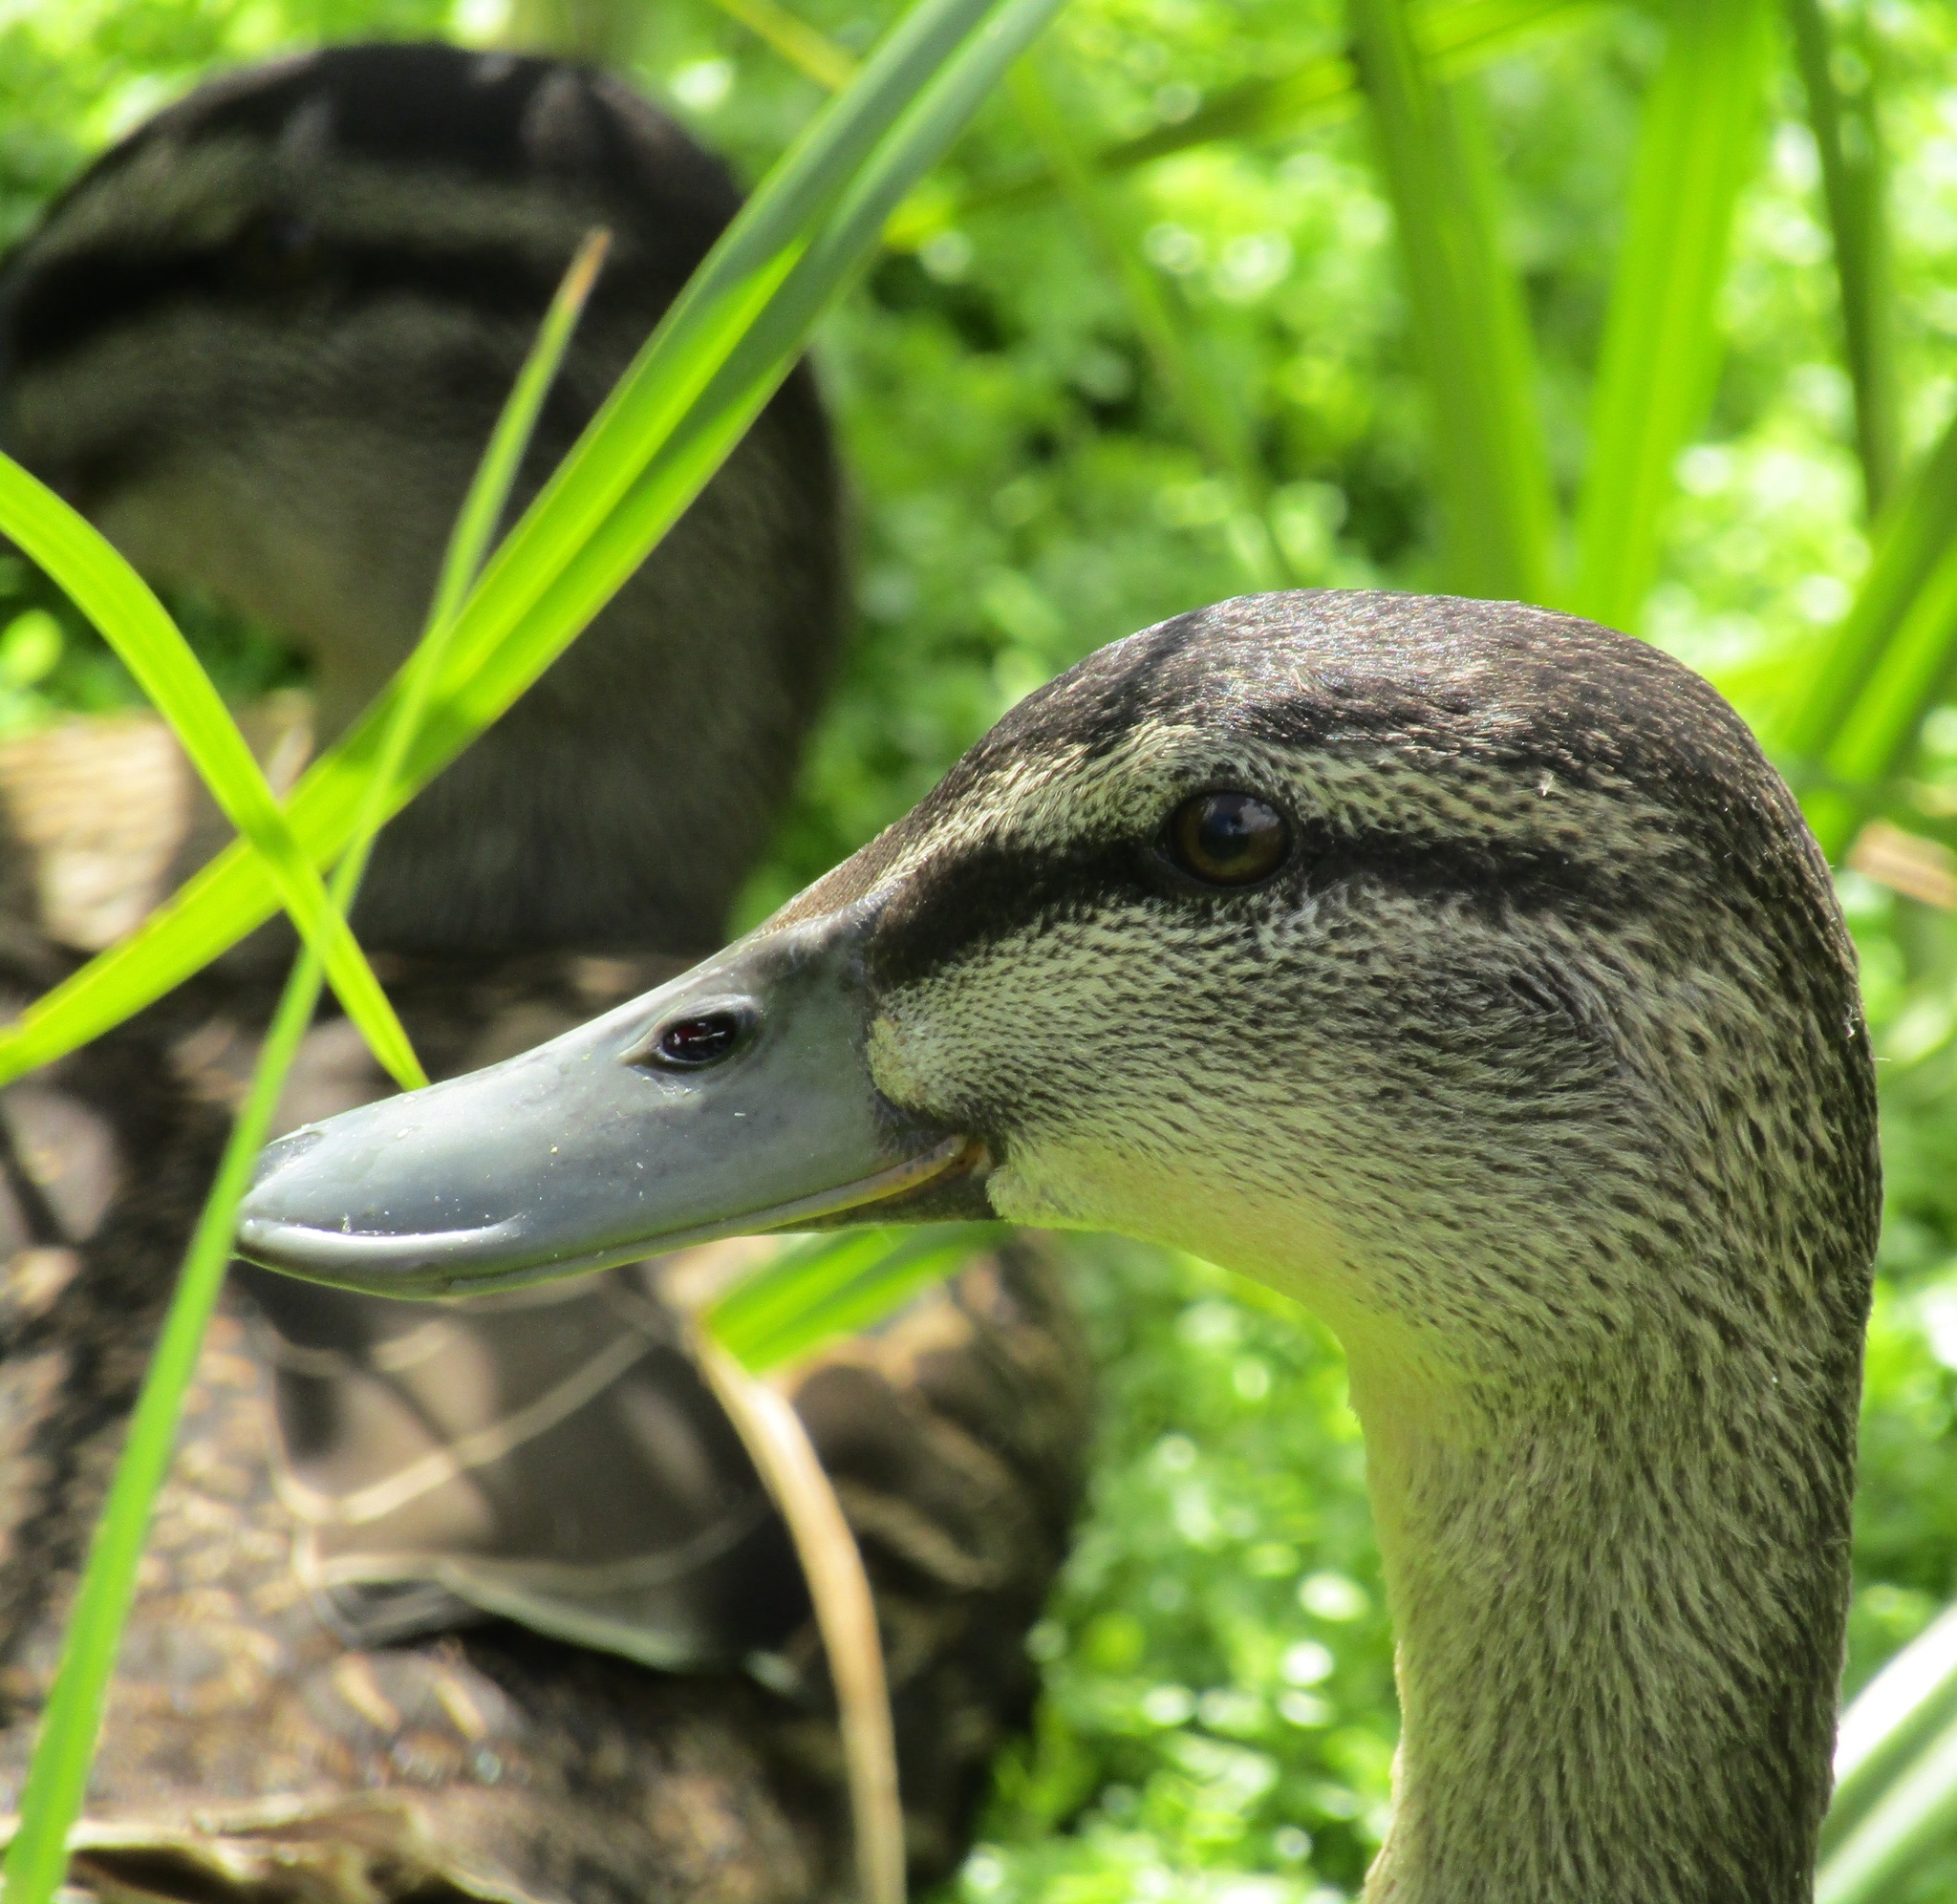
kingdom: Animalia
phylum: Chordata
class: Aves
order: Anseriformes
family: Anatidae
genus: Anas
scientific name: Anas
